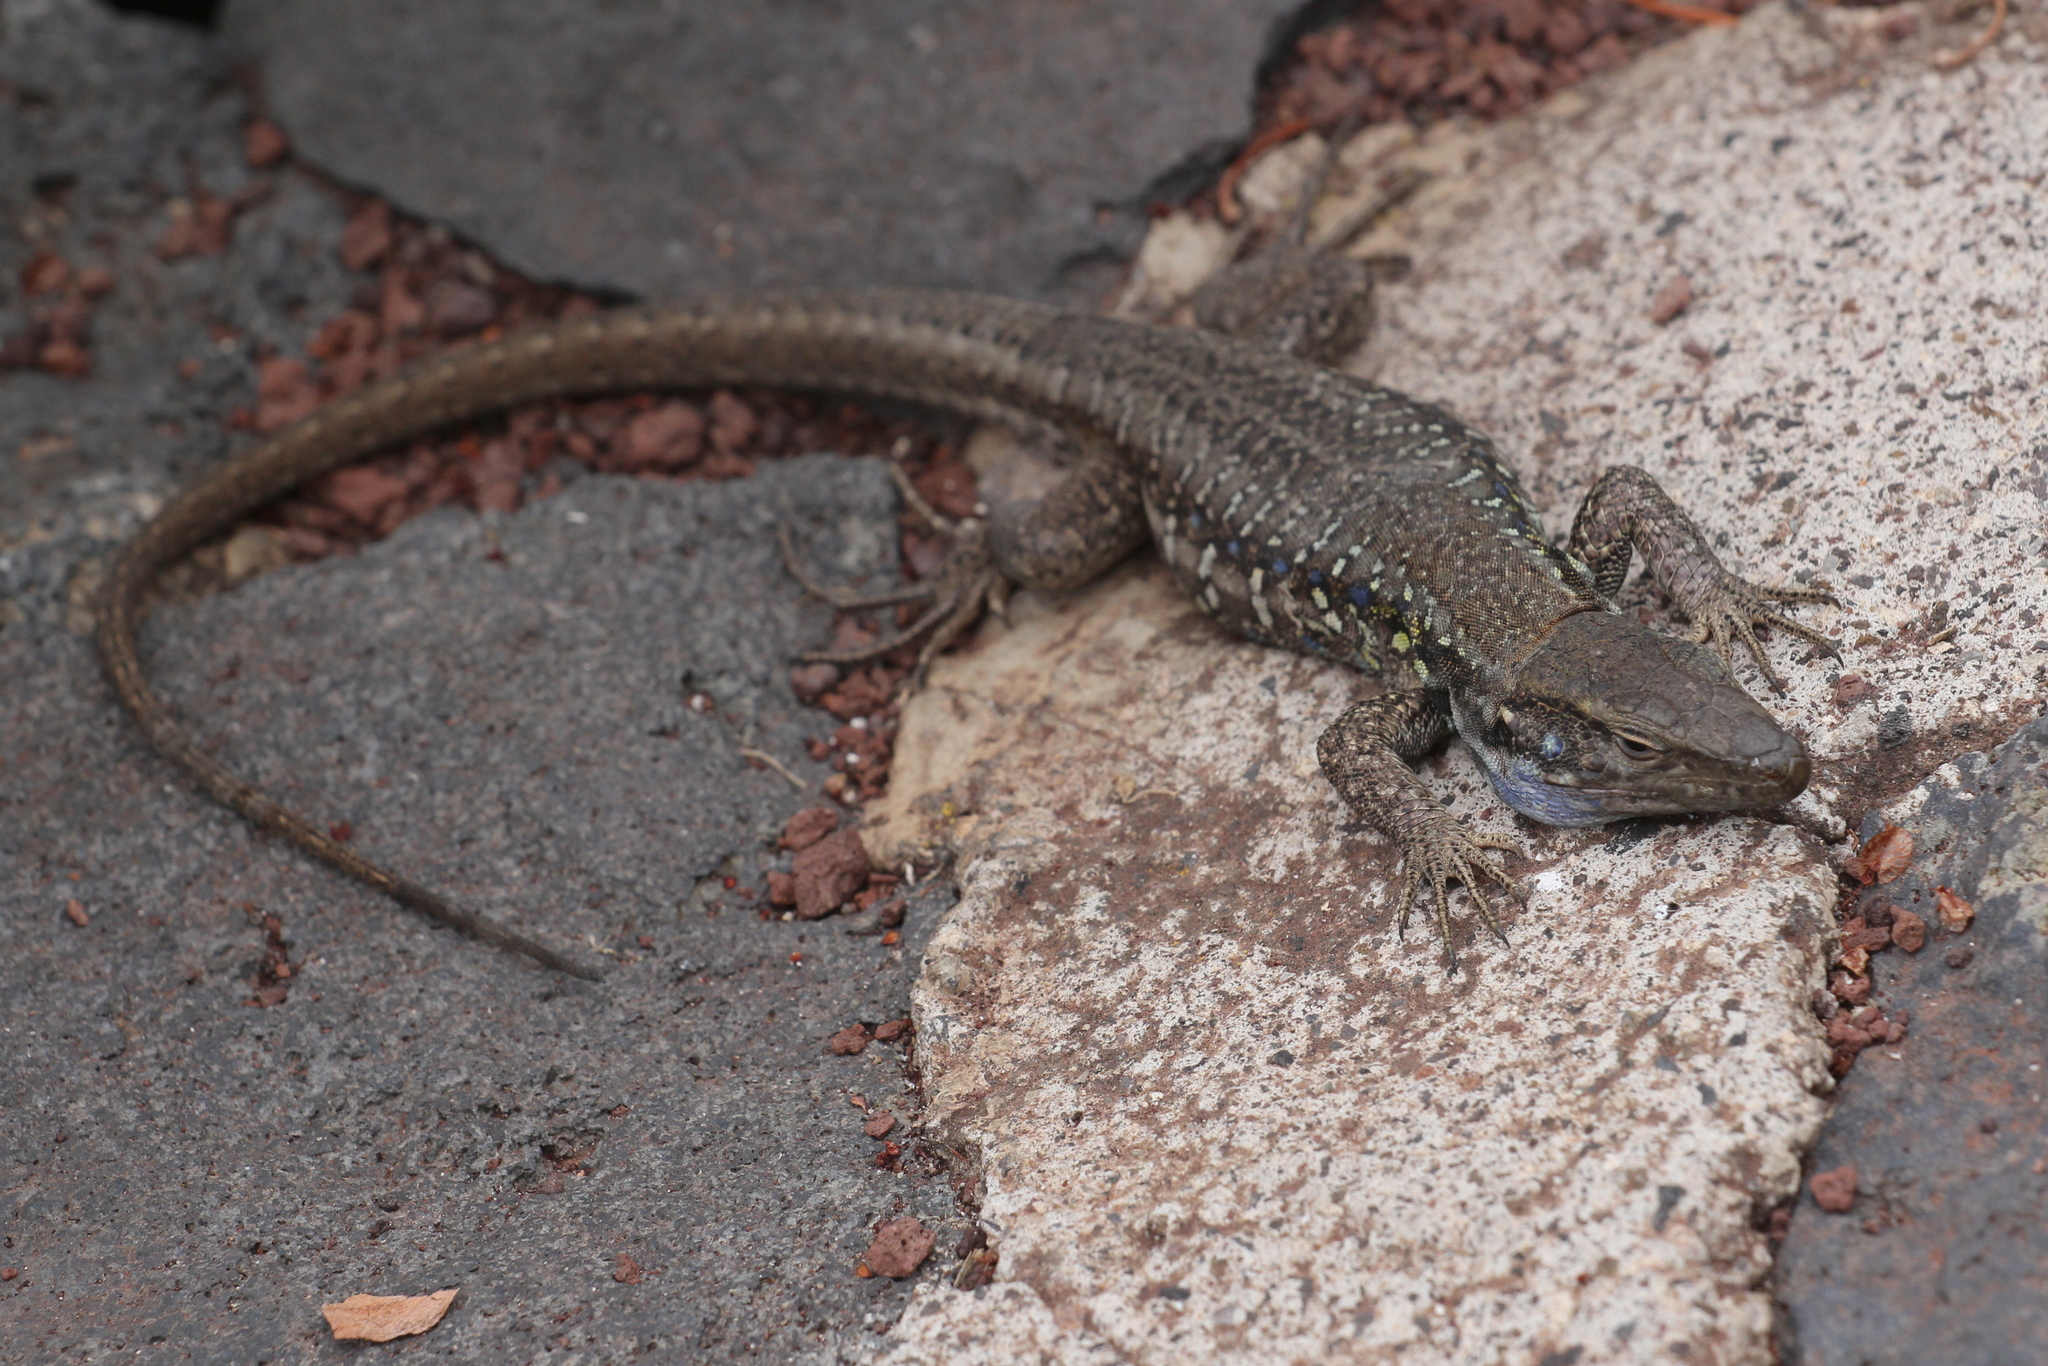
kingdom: Animalia
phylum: Chordata
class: Squamata
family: Lacertidae
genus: Gallotia
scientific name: Gallotia galloti
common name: Gallot's lizard
